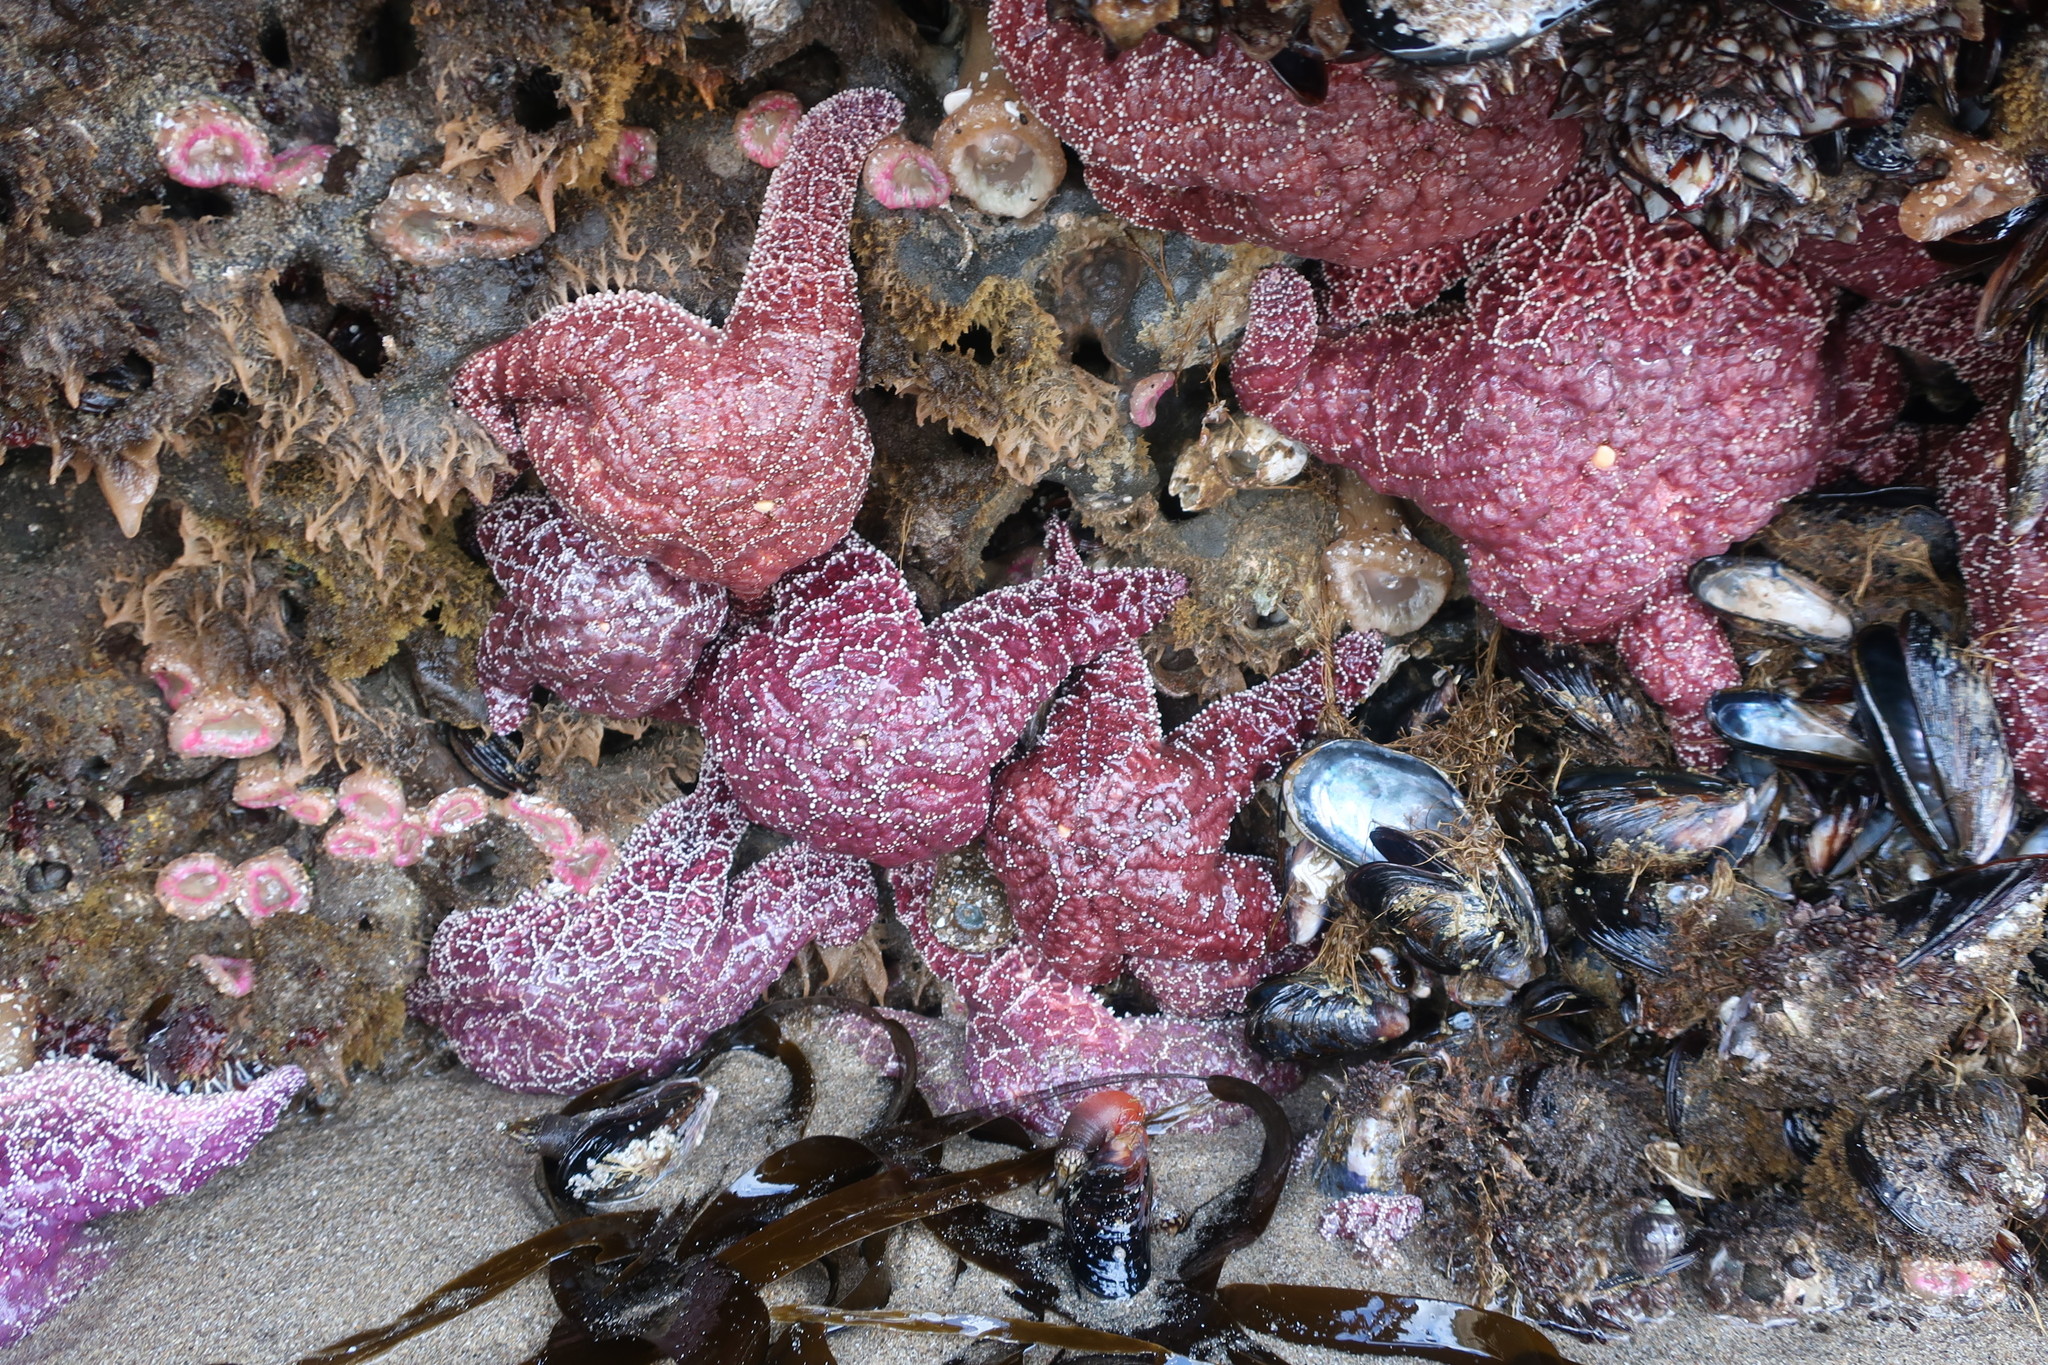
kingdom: Animalia
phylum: Echinodermata
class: Asteroidea
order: Forcipulatida
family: Asteriidae
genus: Pisaster
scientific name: Pisaster ochraceus
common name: Ochre stars
